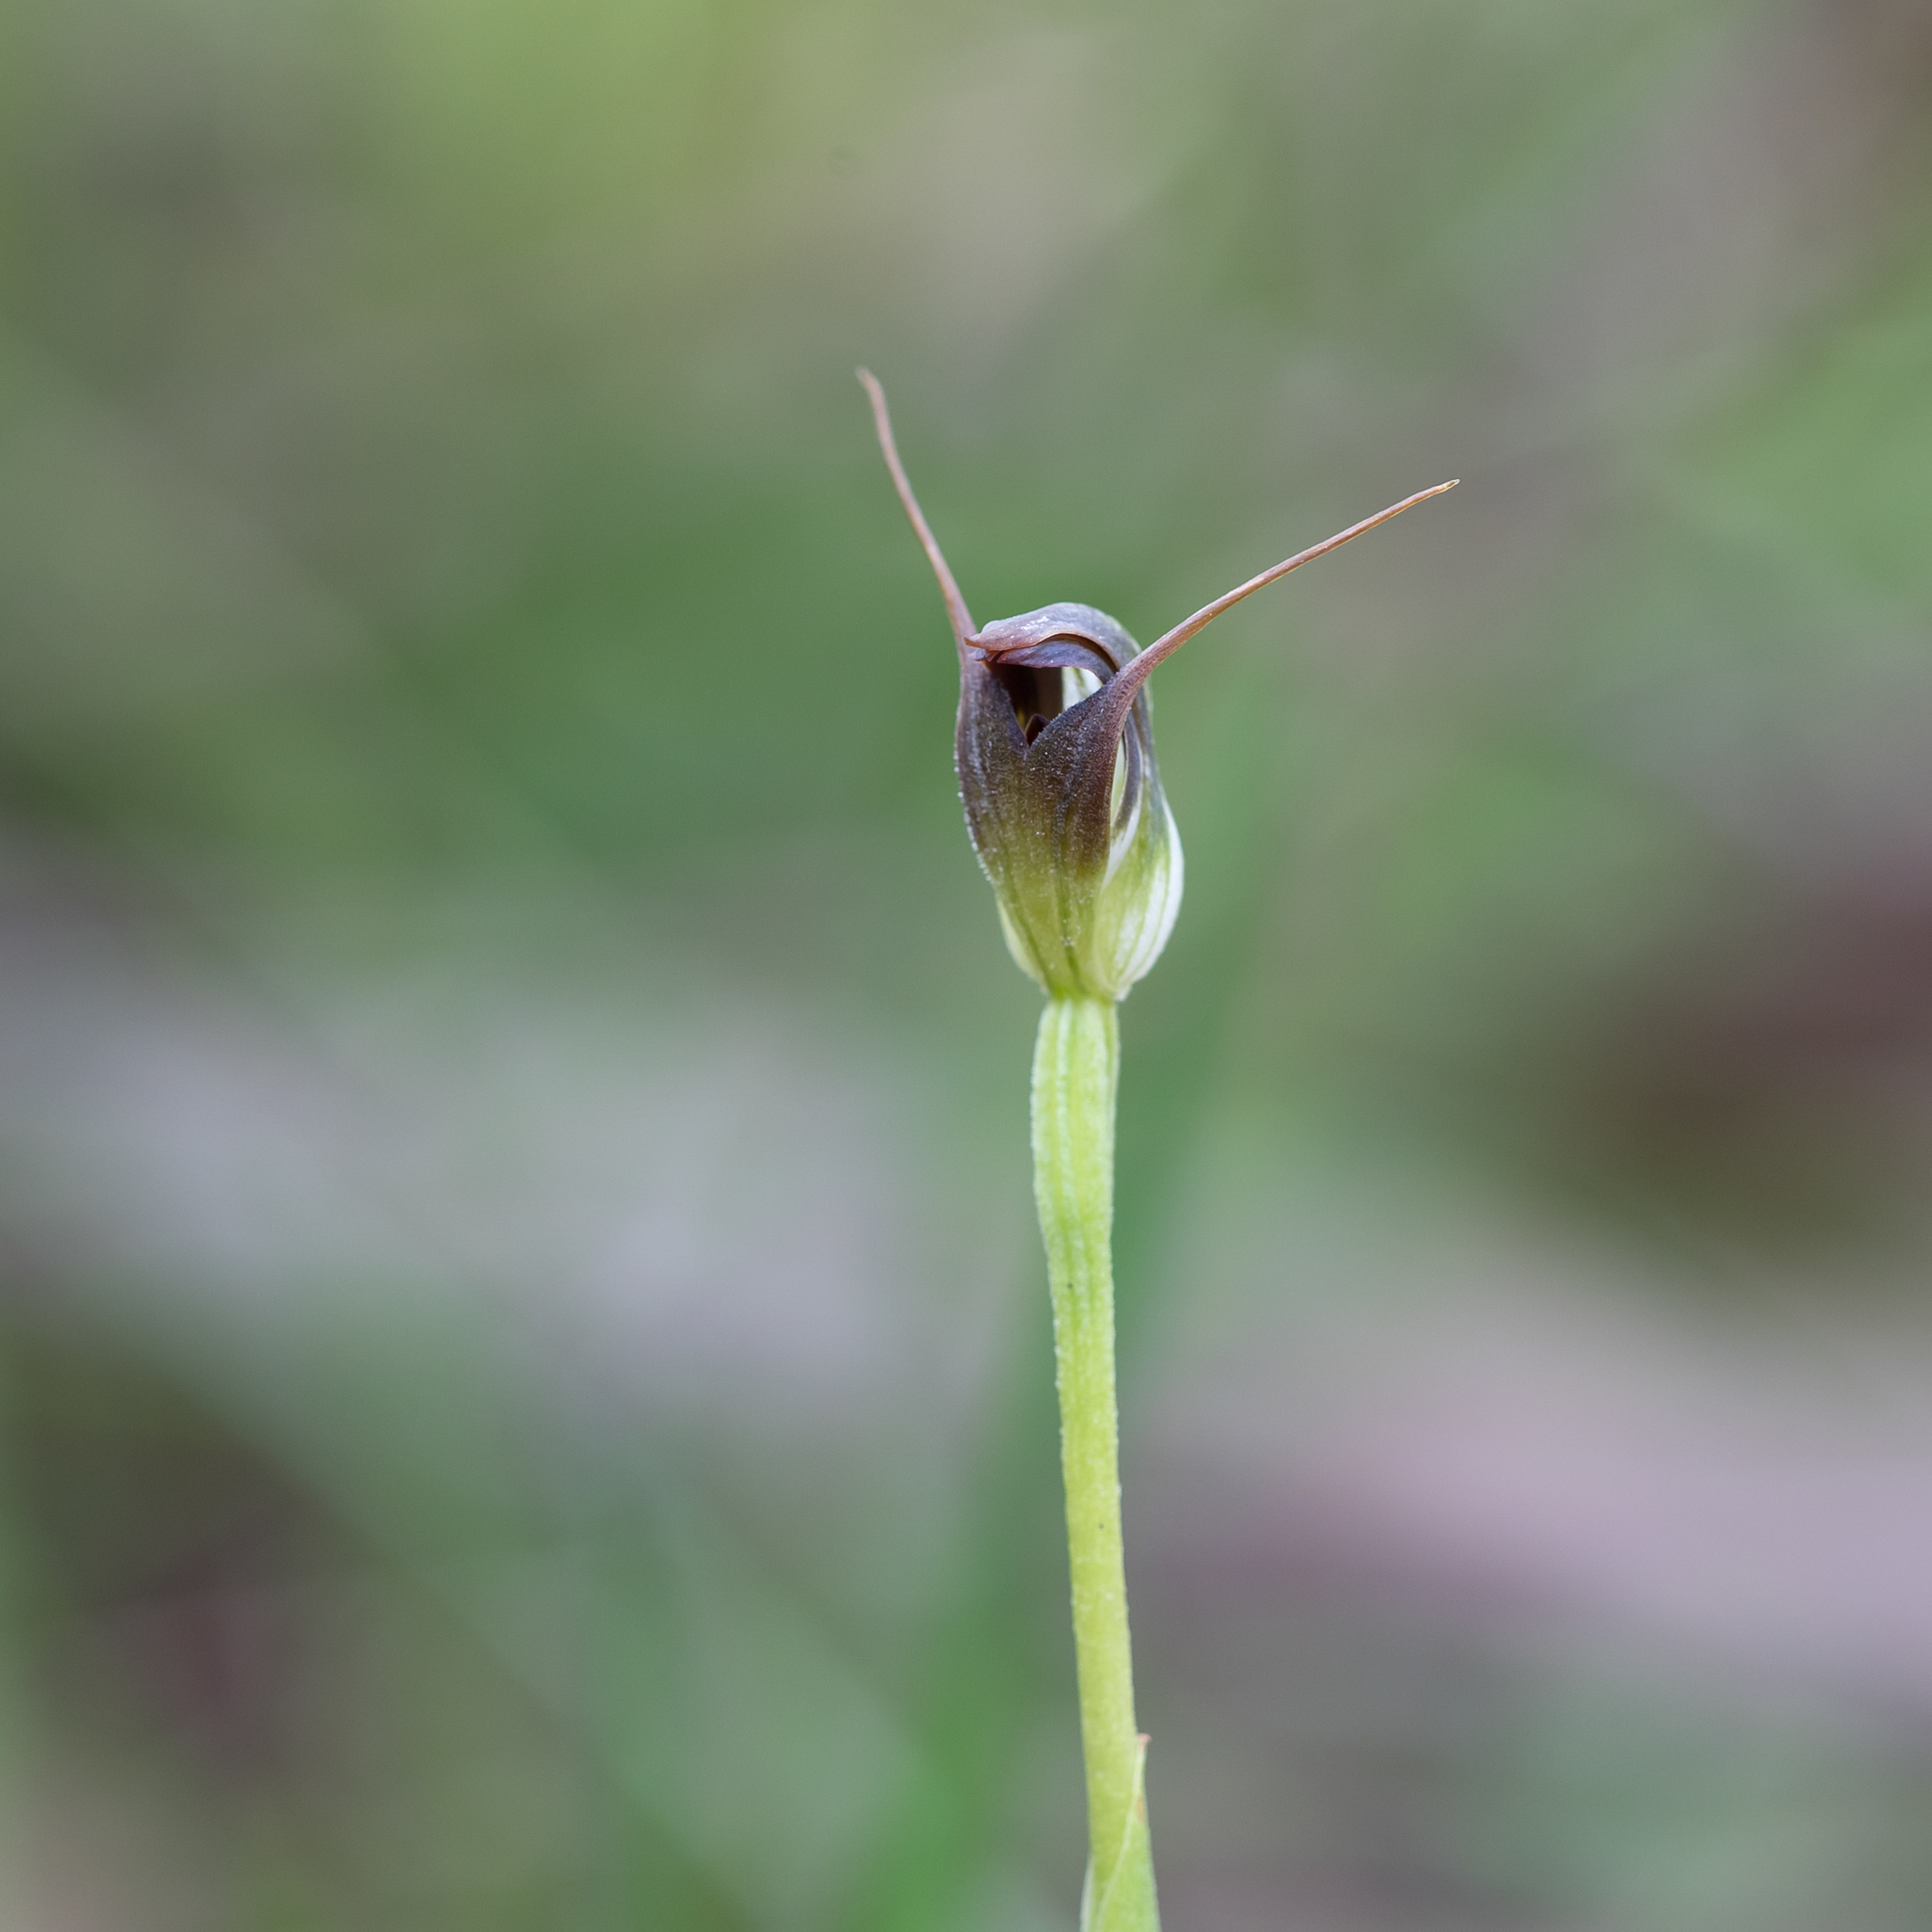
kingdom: Plantae
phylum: Tracheophyta
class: Liliopsida
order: Asparagales
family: Orchidaceae
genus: Pterostylis
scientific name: Pterostylis pedunculata
